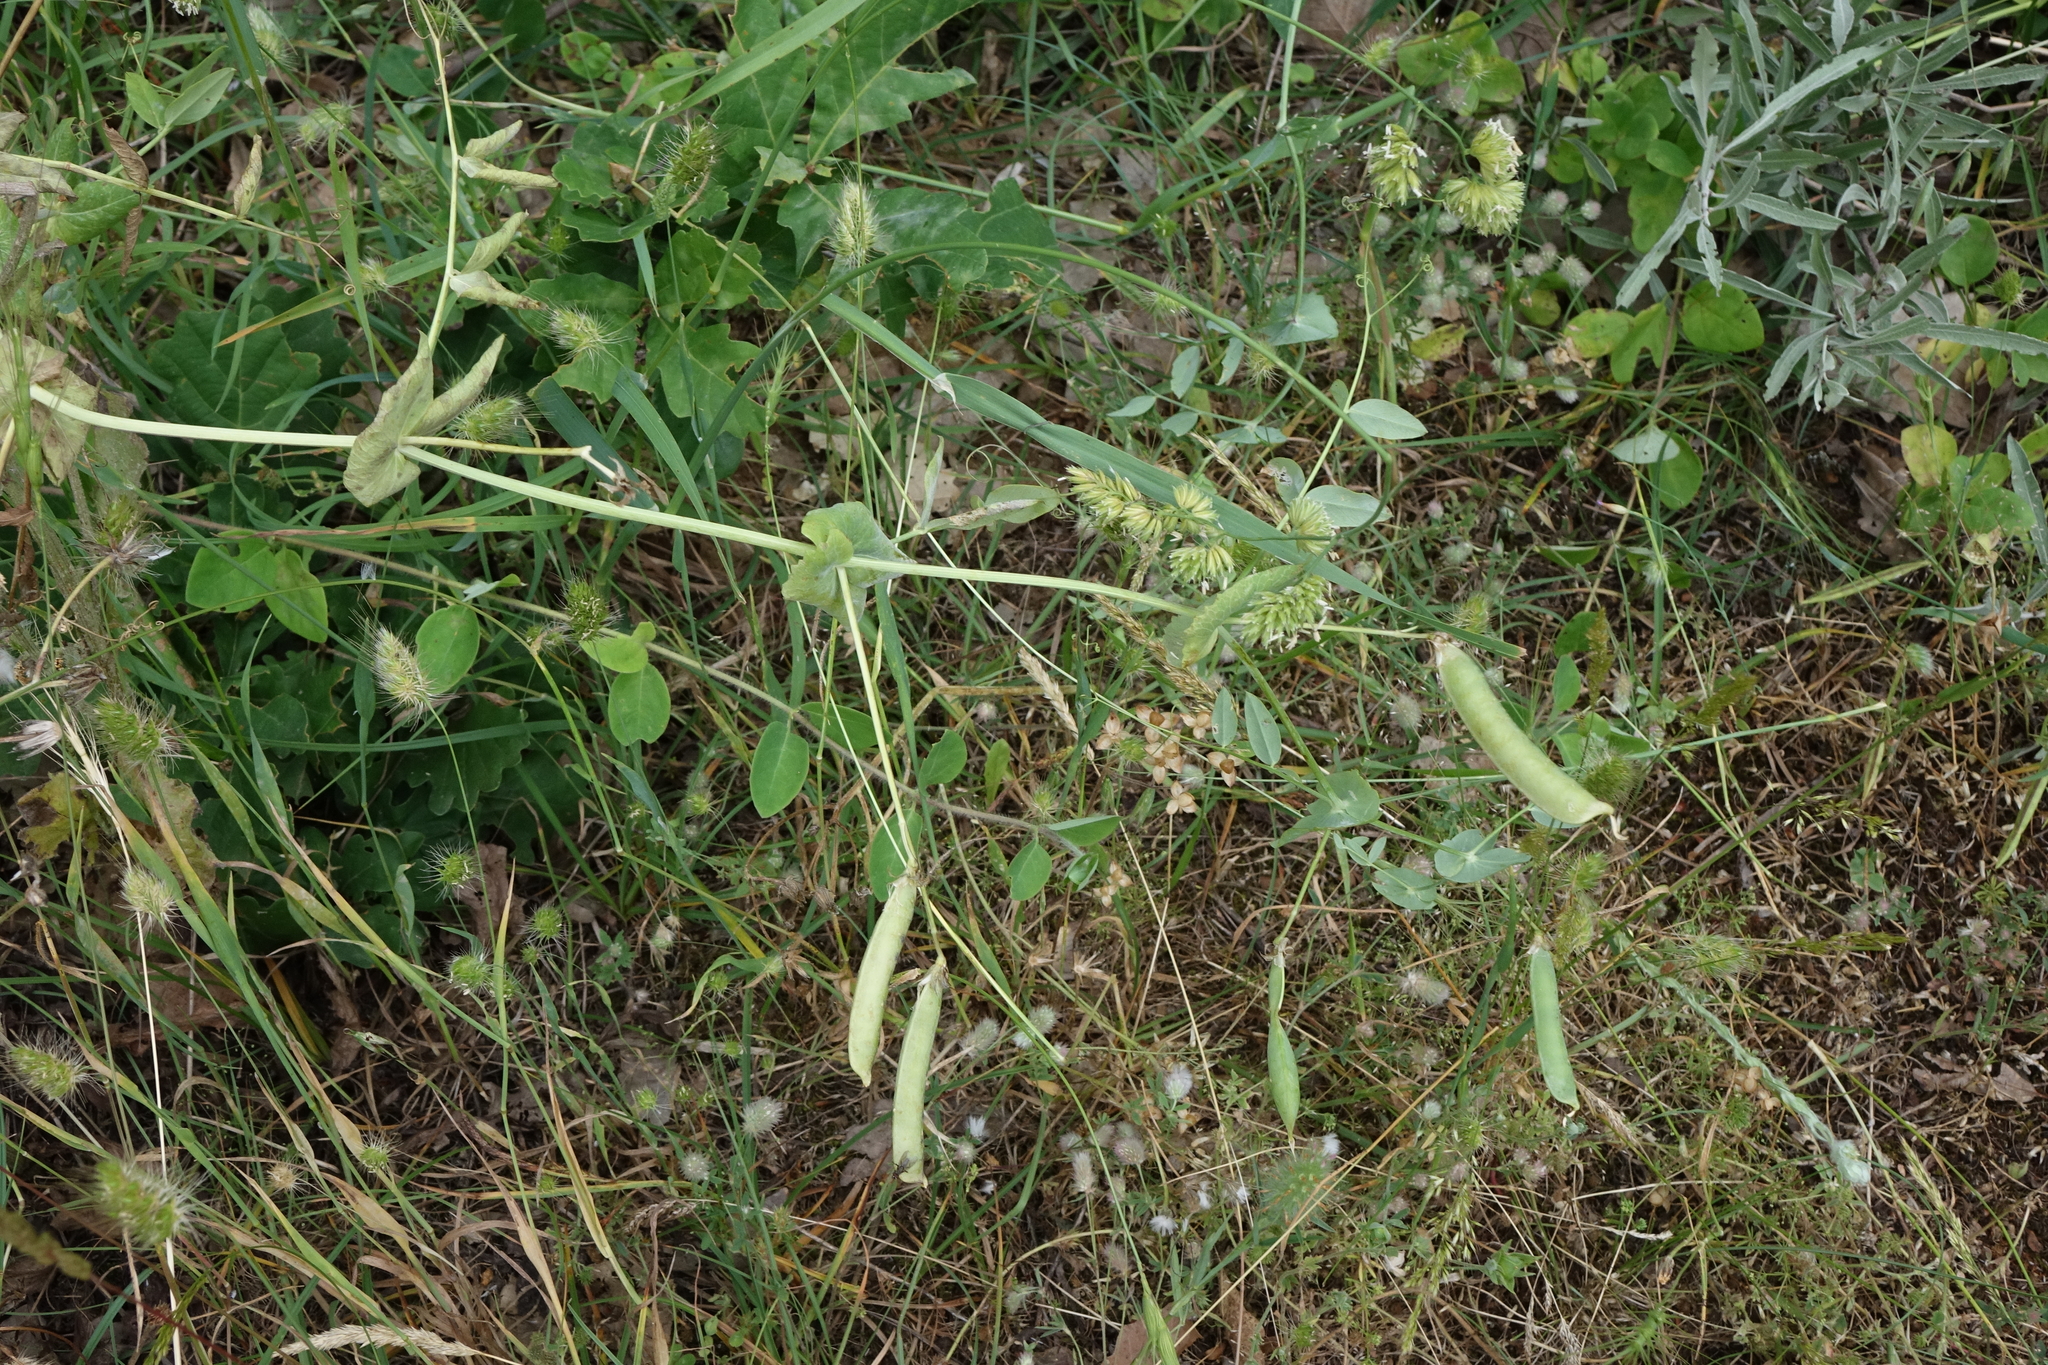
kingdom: Plantae
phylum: Tracheophyta
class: Magnoliopsida
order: Fabales
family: Fabaceae
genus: Lathyrus
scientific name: Lathyrus oleraceus
